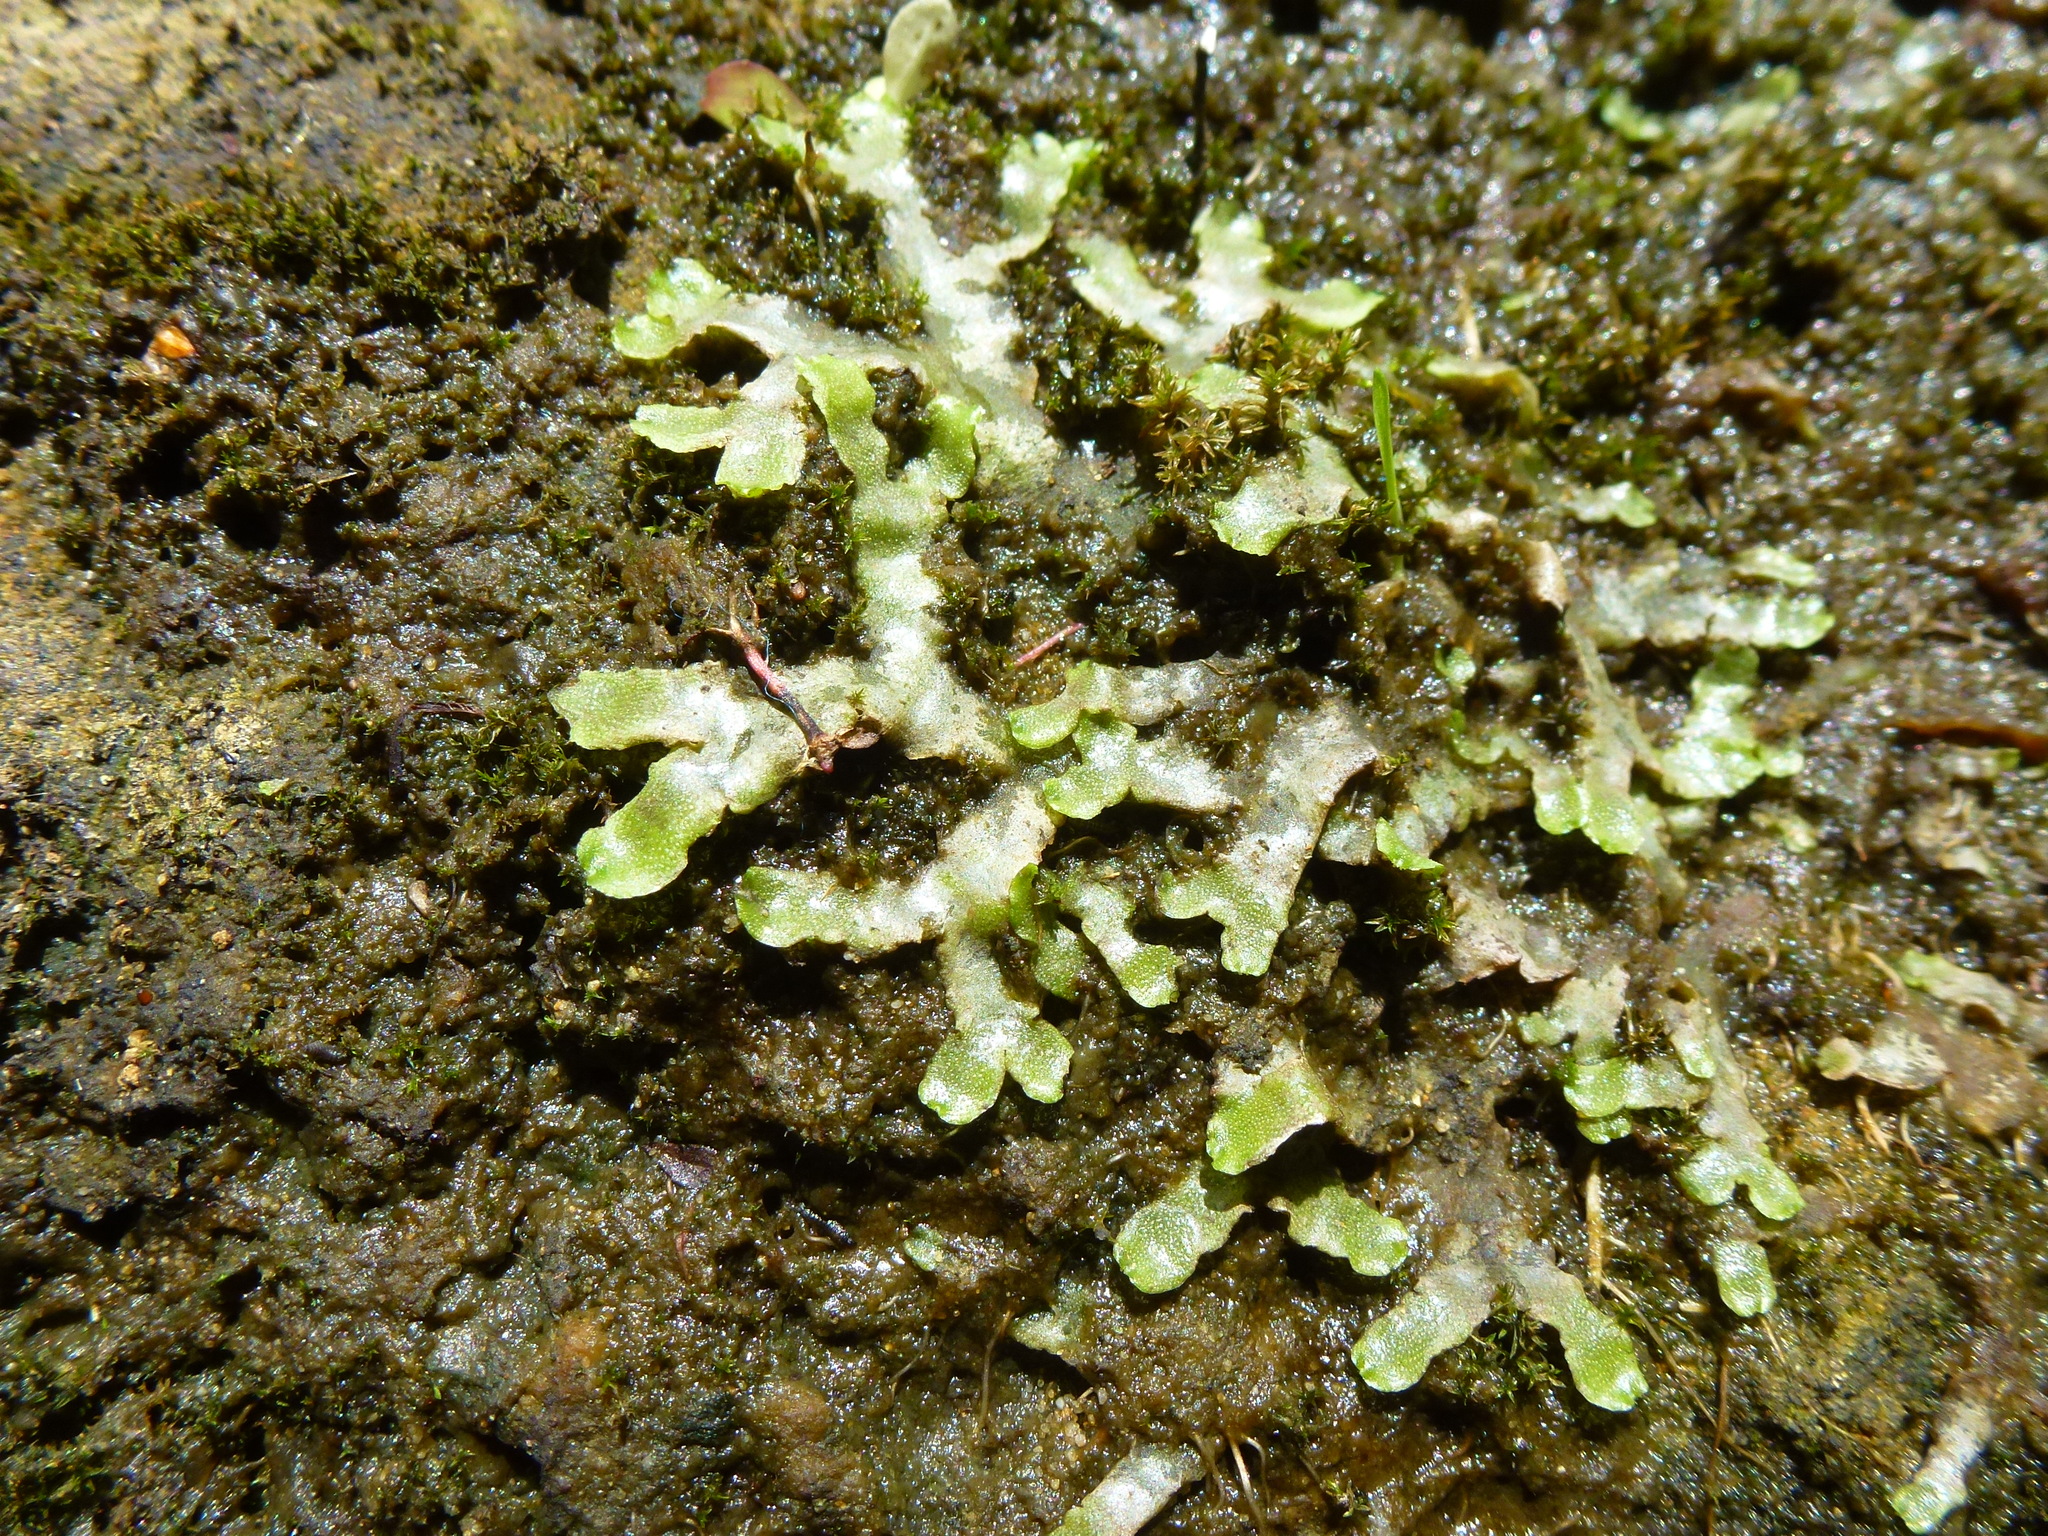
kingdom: Plantae
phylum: Marchantiophyta
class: Marchantiopsida
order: Marchantiales
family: Conocephalaceae
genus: Conocephalum
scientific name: Conocephalum conicum
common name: Great scented liverwort
